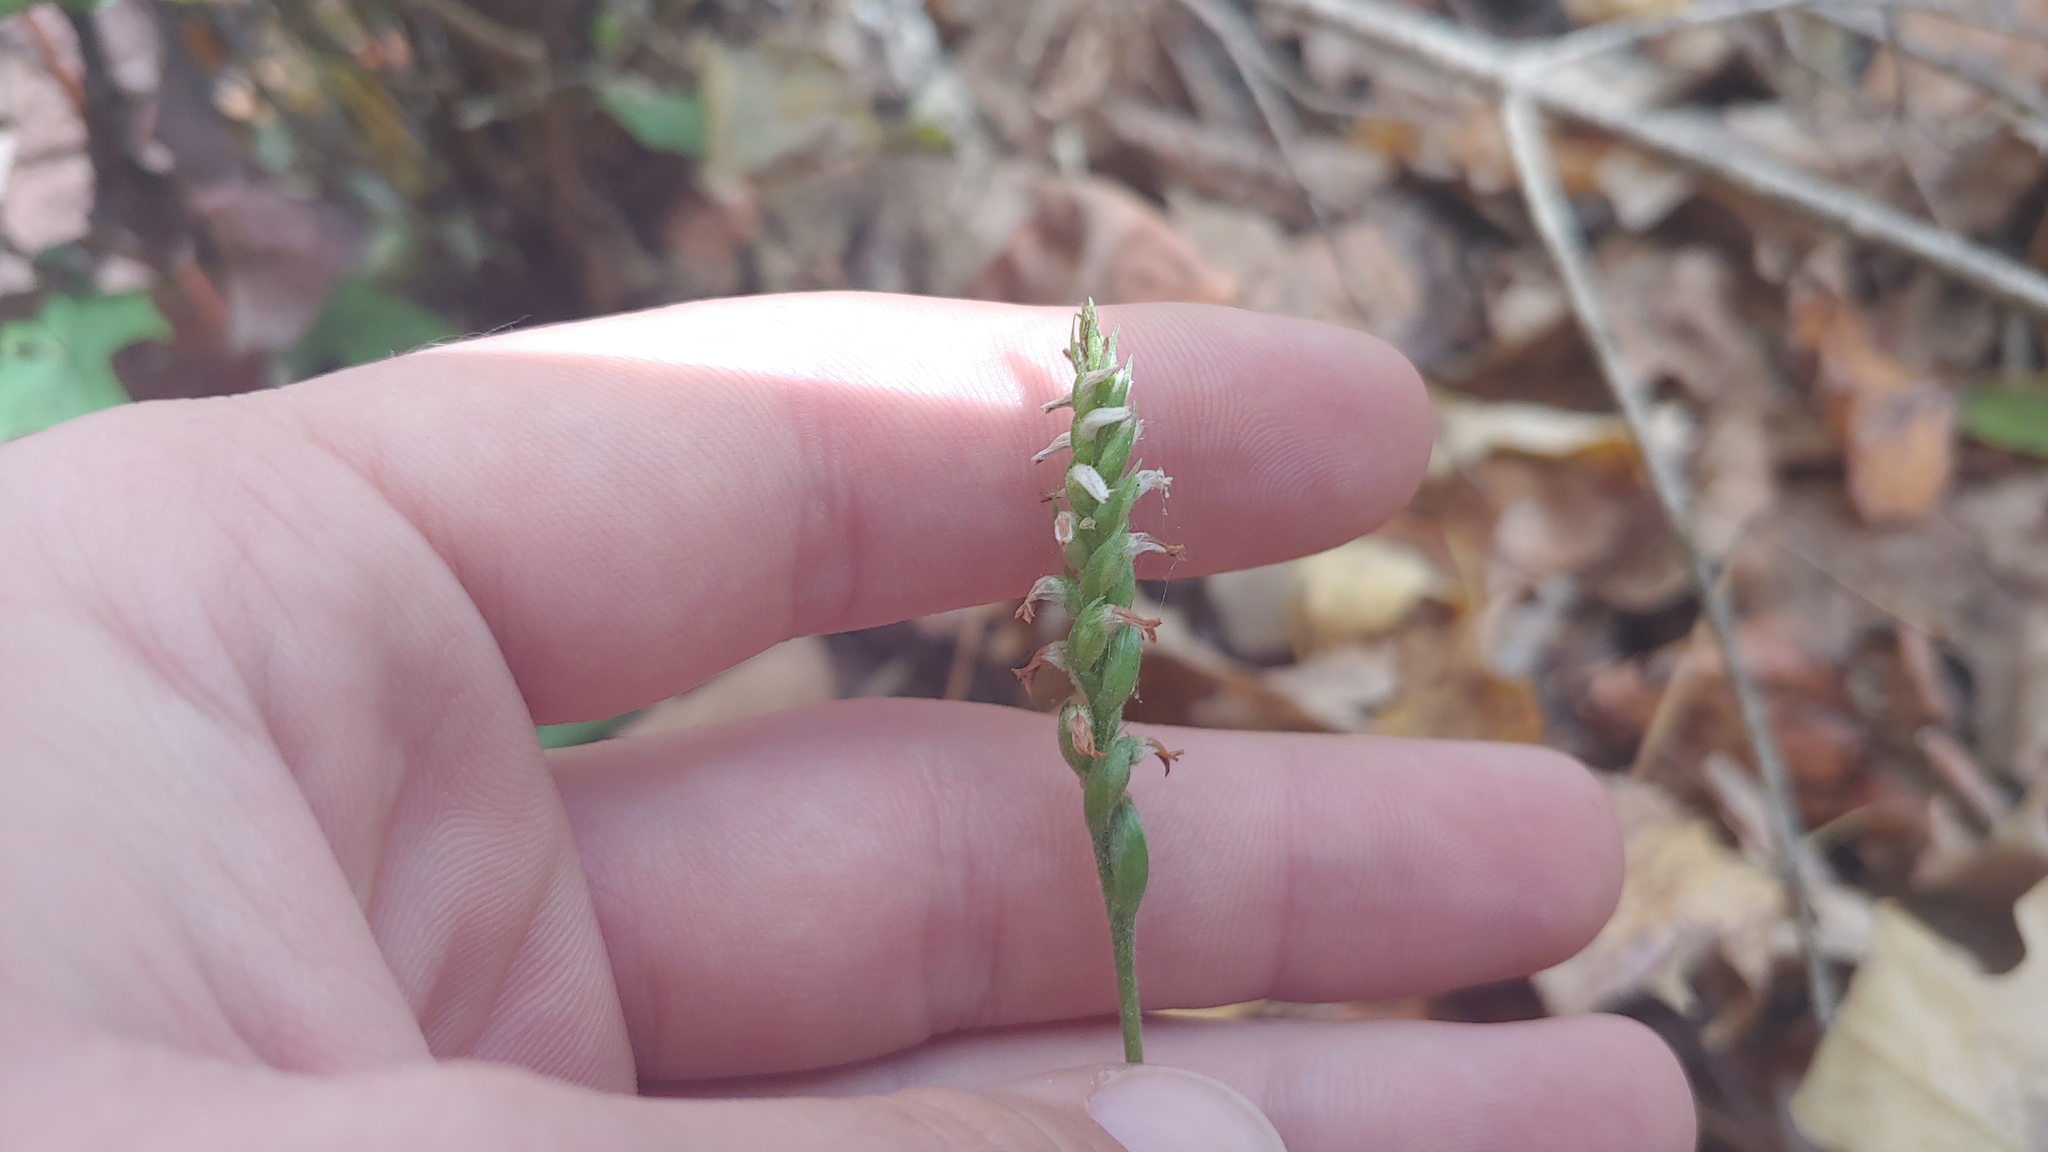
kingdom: Plantae
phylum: Tracheophyta
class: Liliopsida
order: Asparagales
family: Orchidaceae
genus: Spiranthes
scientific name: Spiranthes ovalis
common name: October ladies'-tresses
